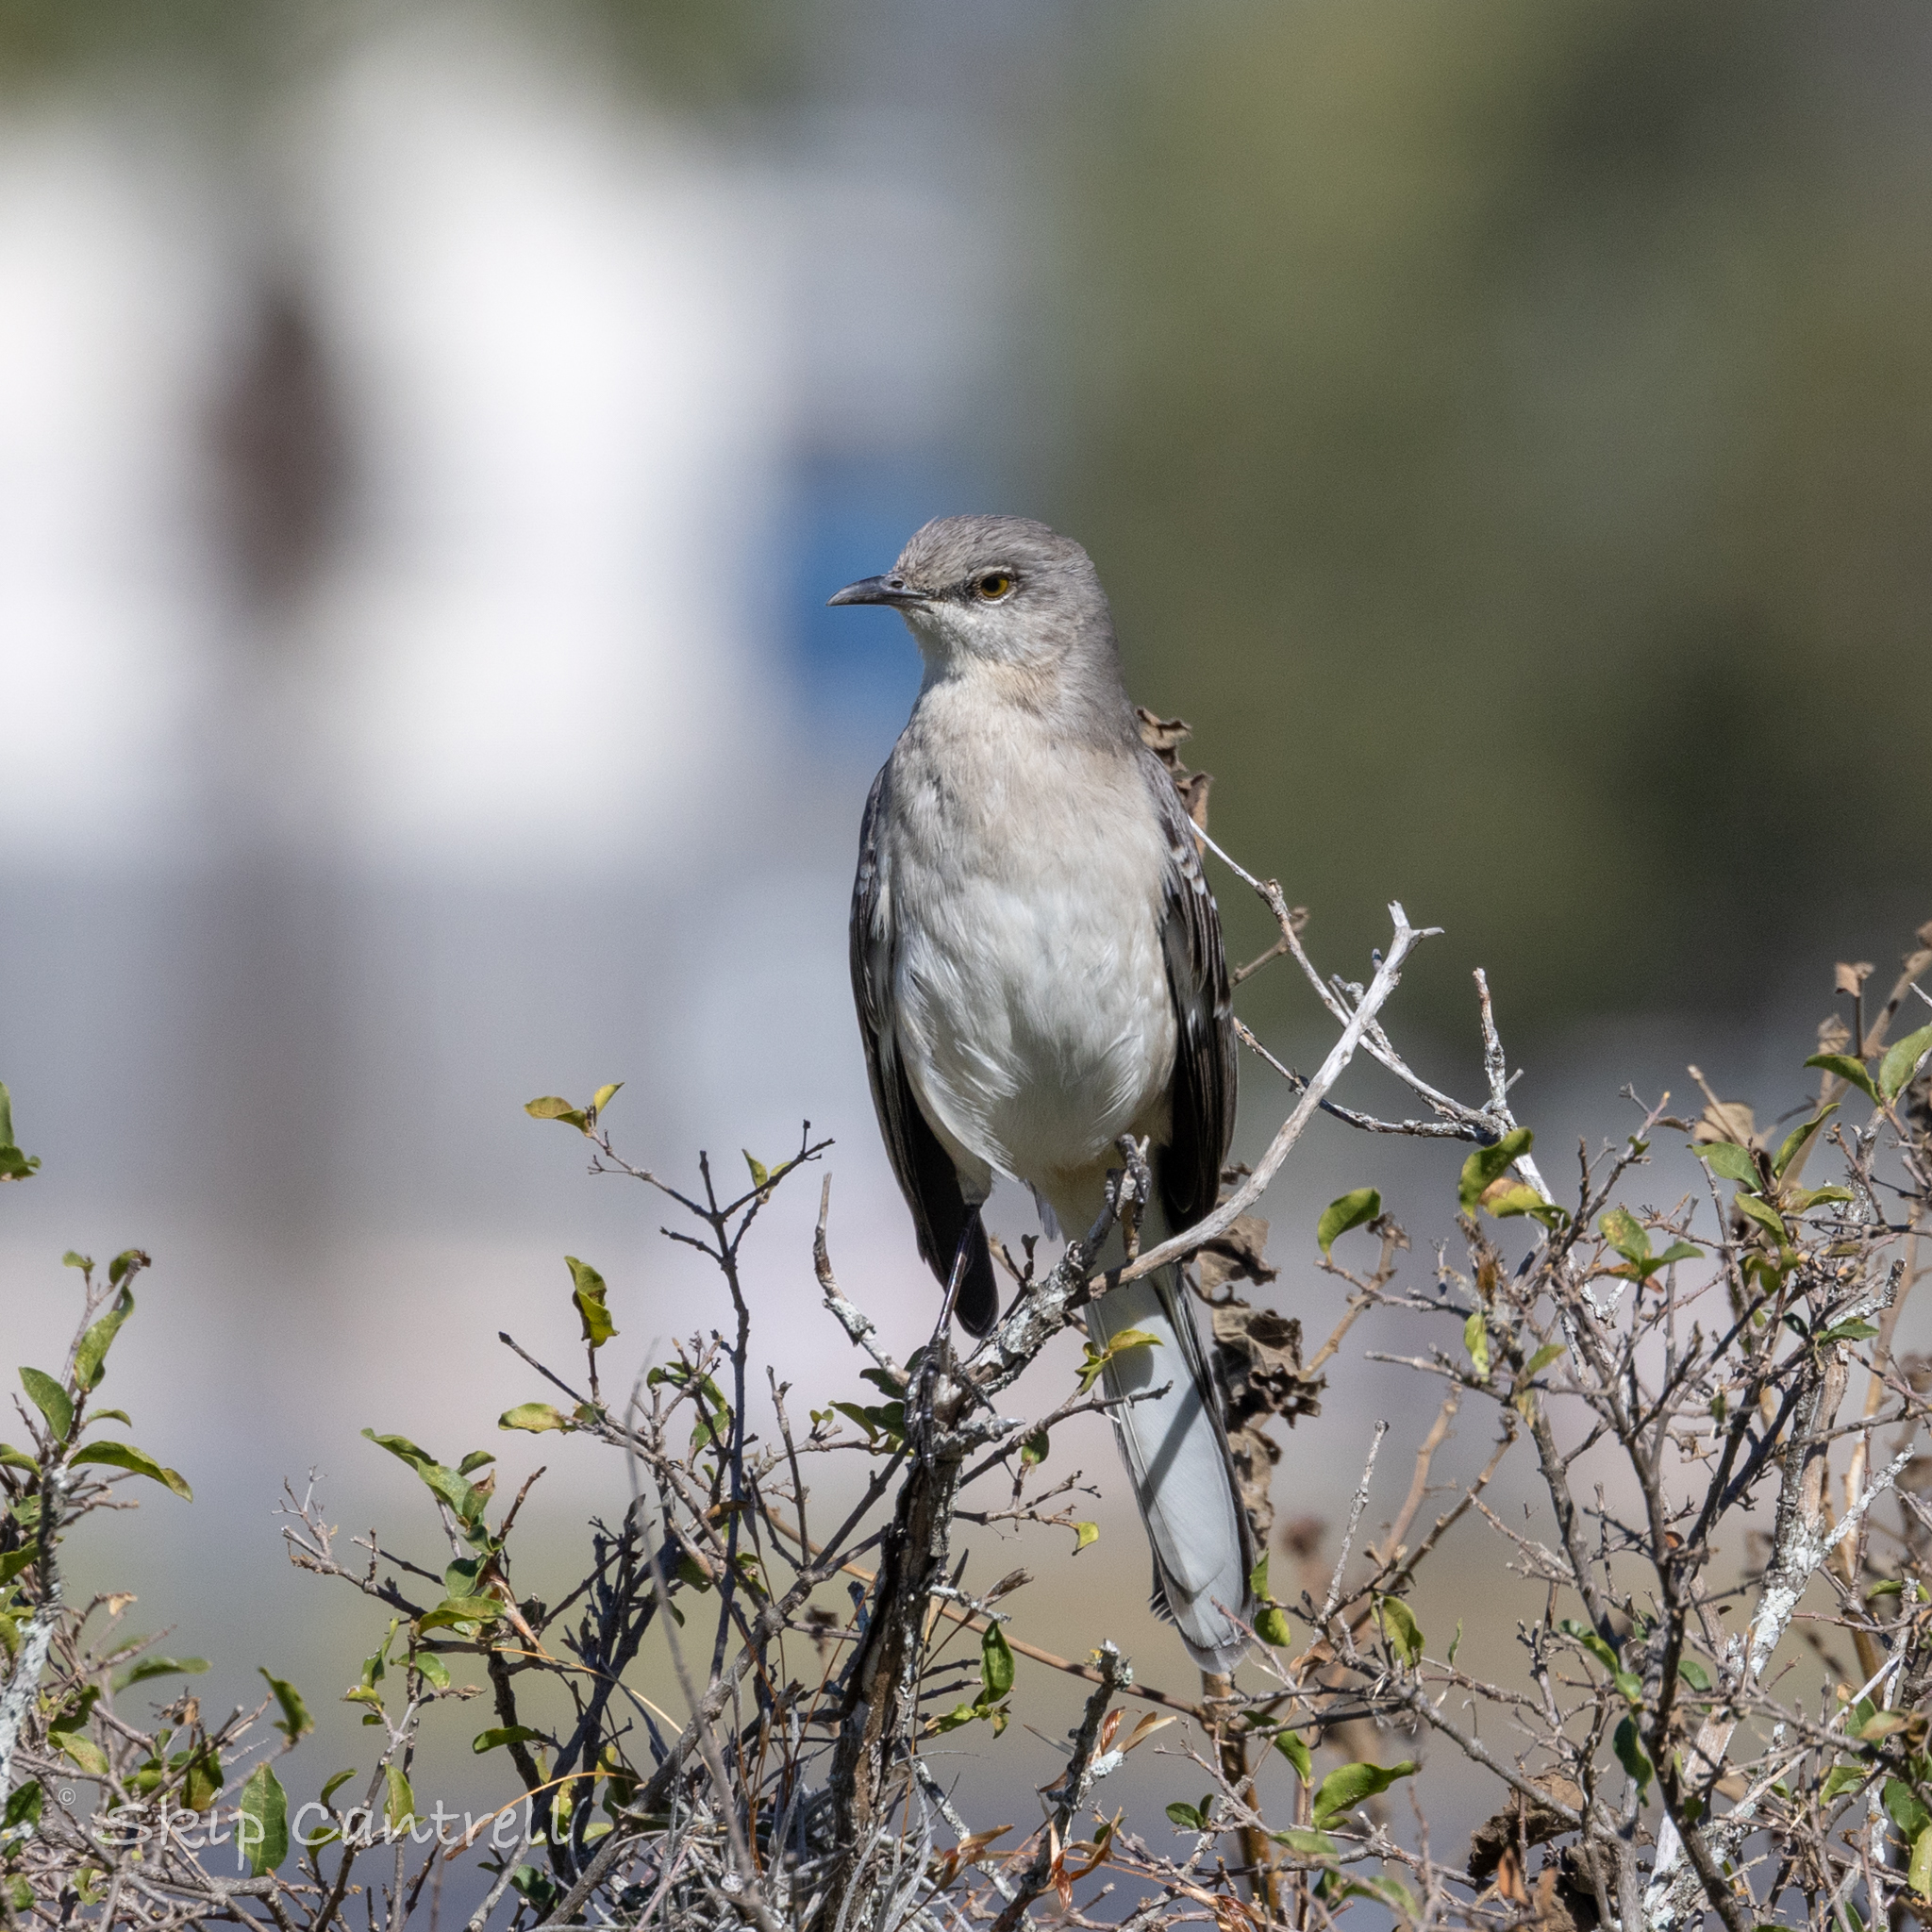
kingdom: Animalia
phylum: Chordata
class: Aves
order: Passeriformes
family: Mimidae
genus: Mimus
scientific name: Mimus polyglottos
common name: Northern mockingbird
